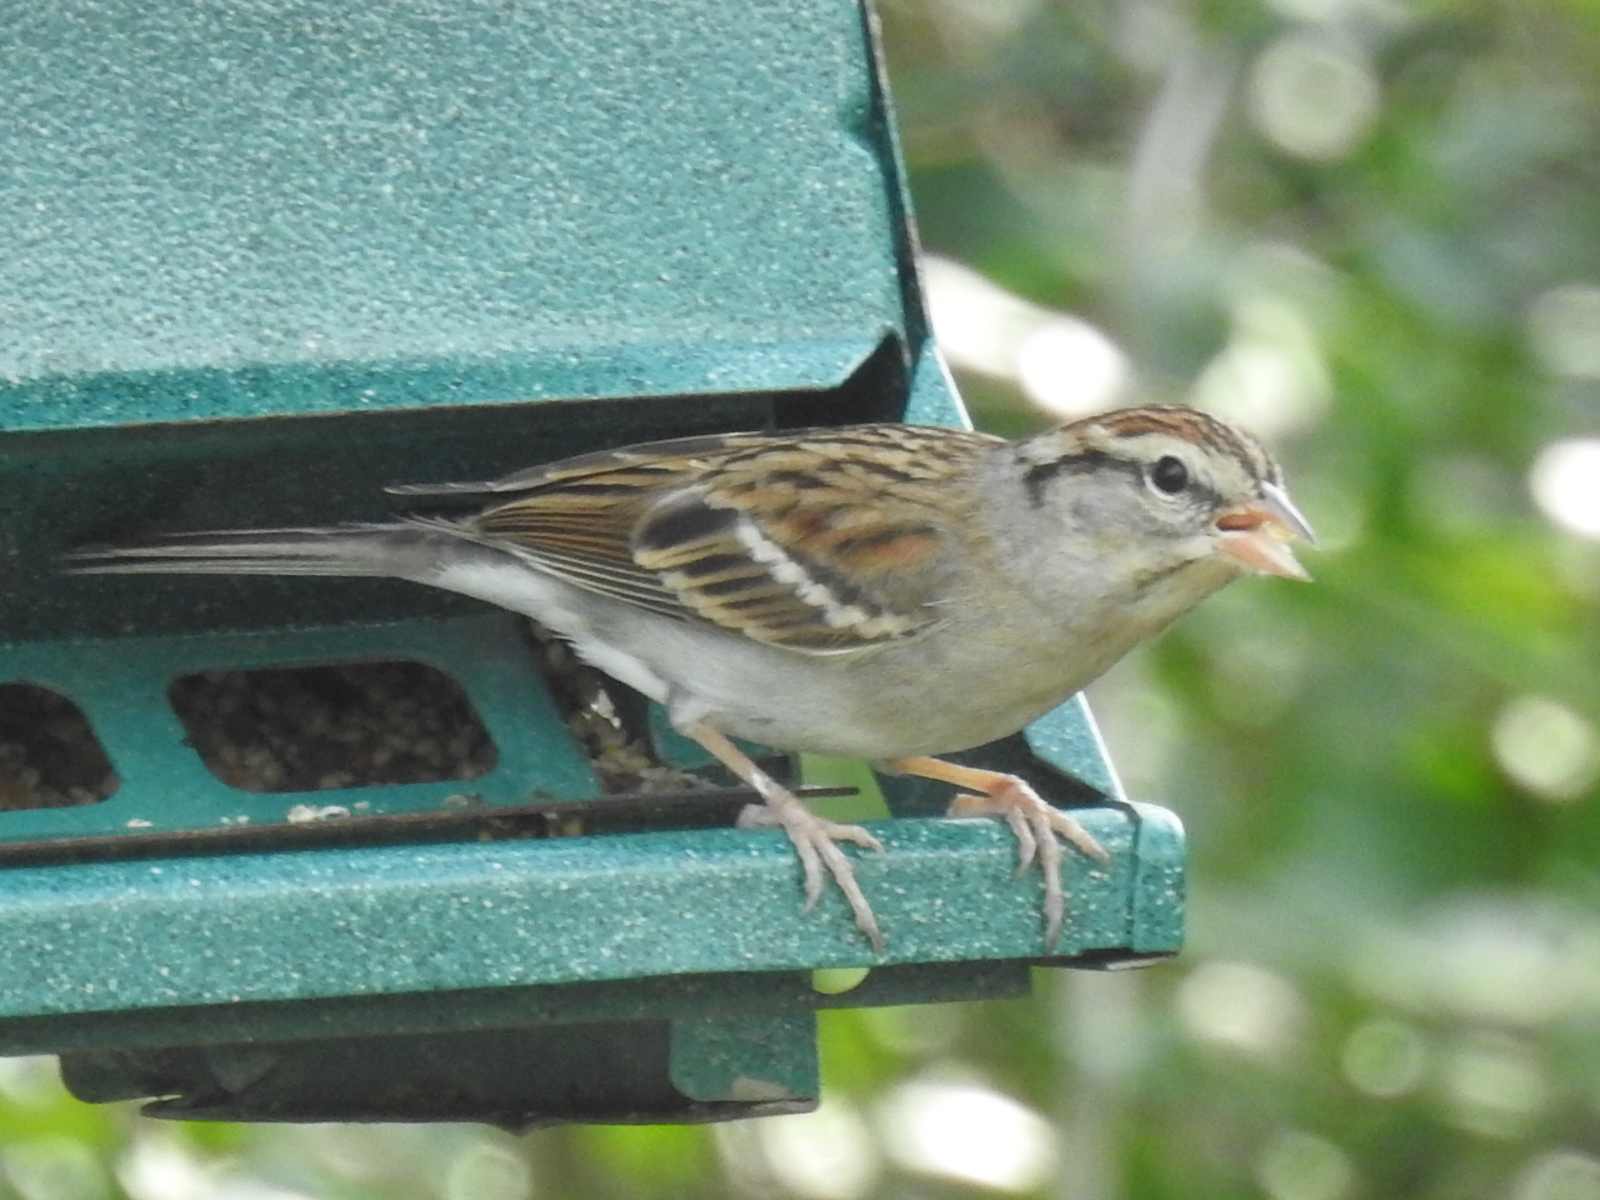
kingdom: Animalia
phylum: Chordata
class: Aves
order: Passeriformes
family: Passerellidae
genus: Spizella
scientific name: Spizella passerina
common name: Chipping sparrow
